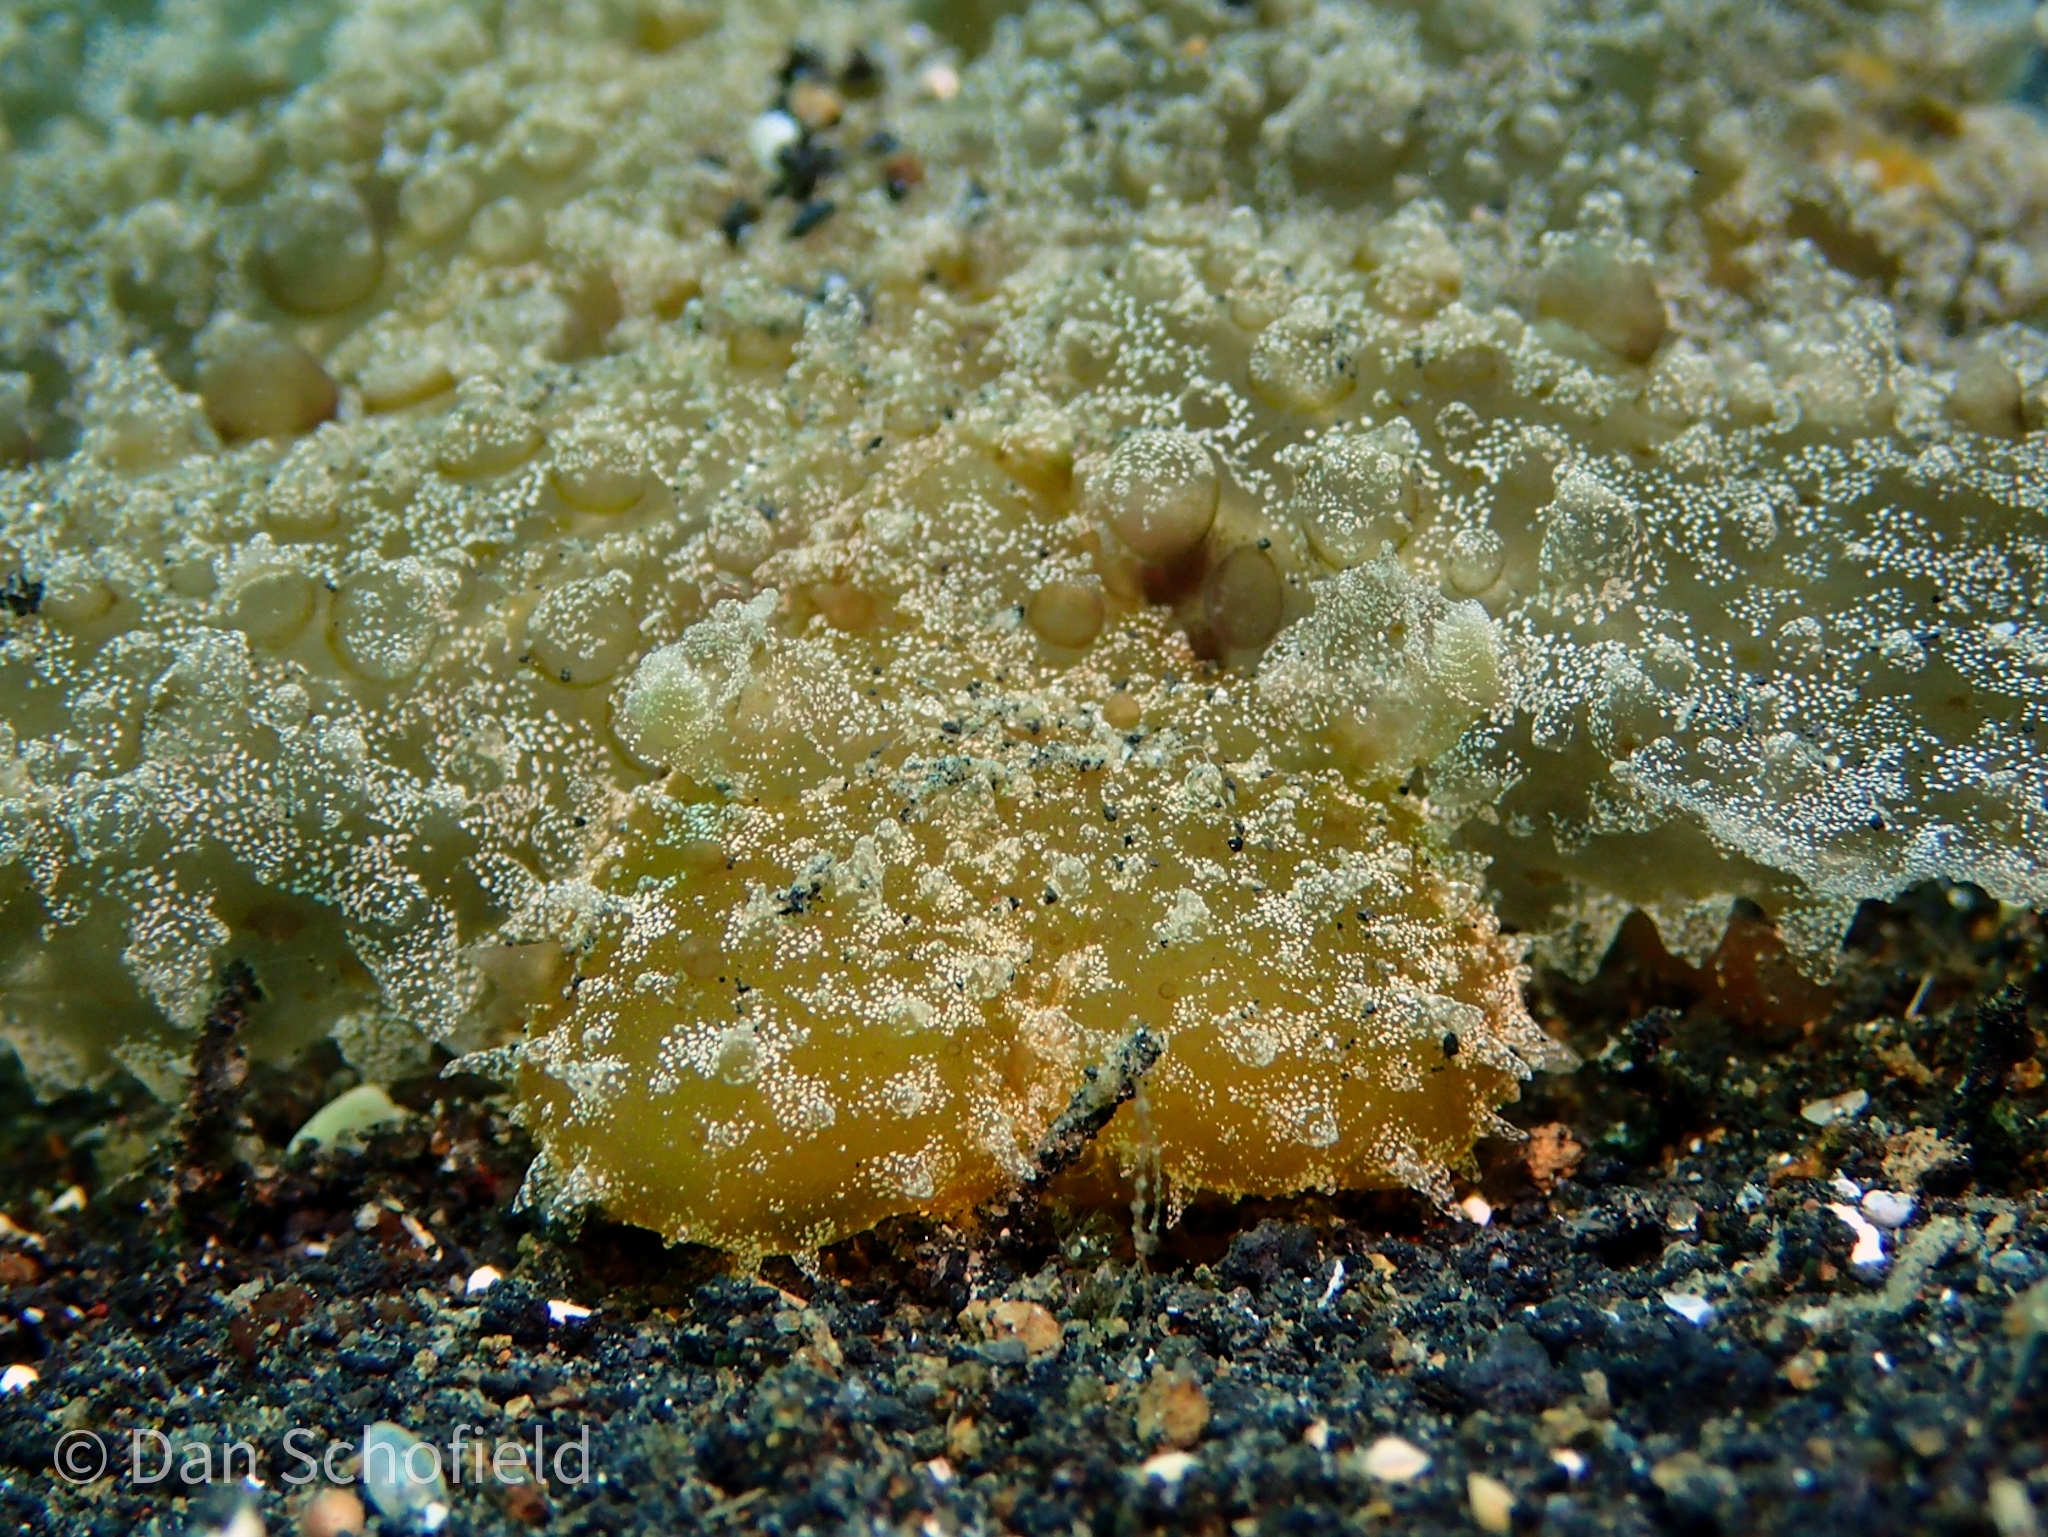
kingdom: Animalia
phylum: Mollusca
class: Gastropoda
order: Nudibranchia
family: Tethydidae
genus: Melibe
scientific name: Melibe viridis
